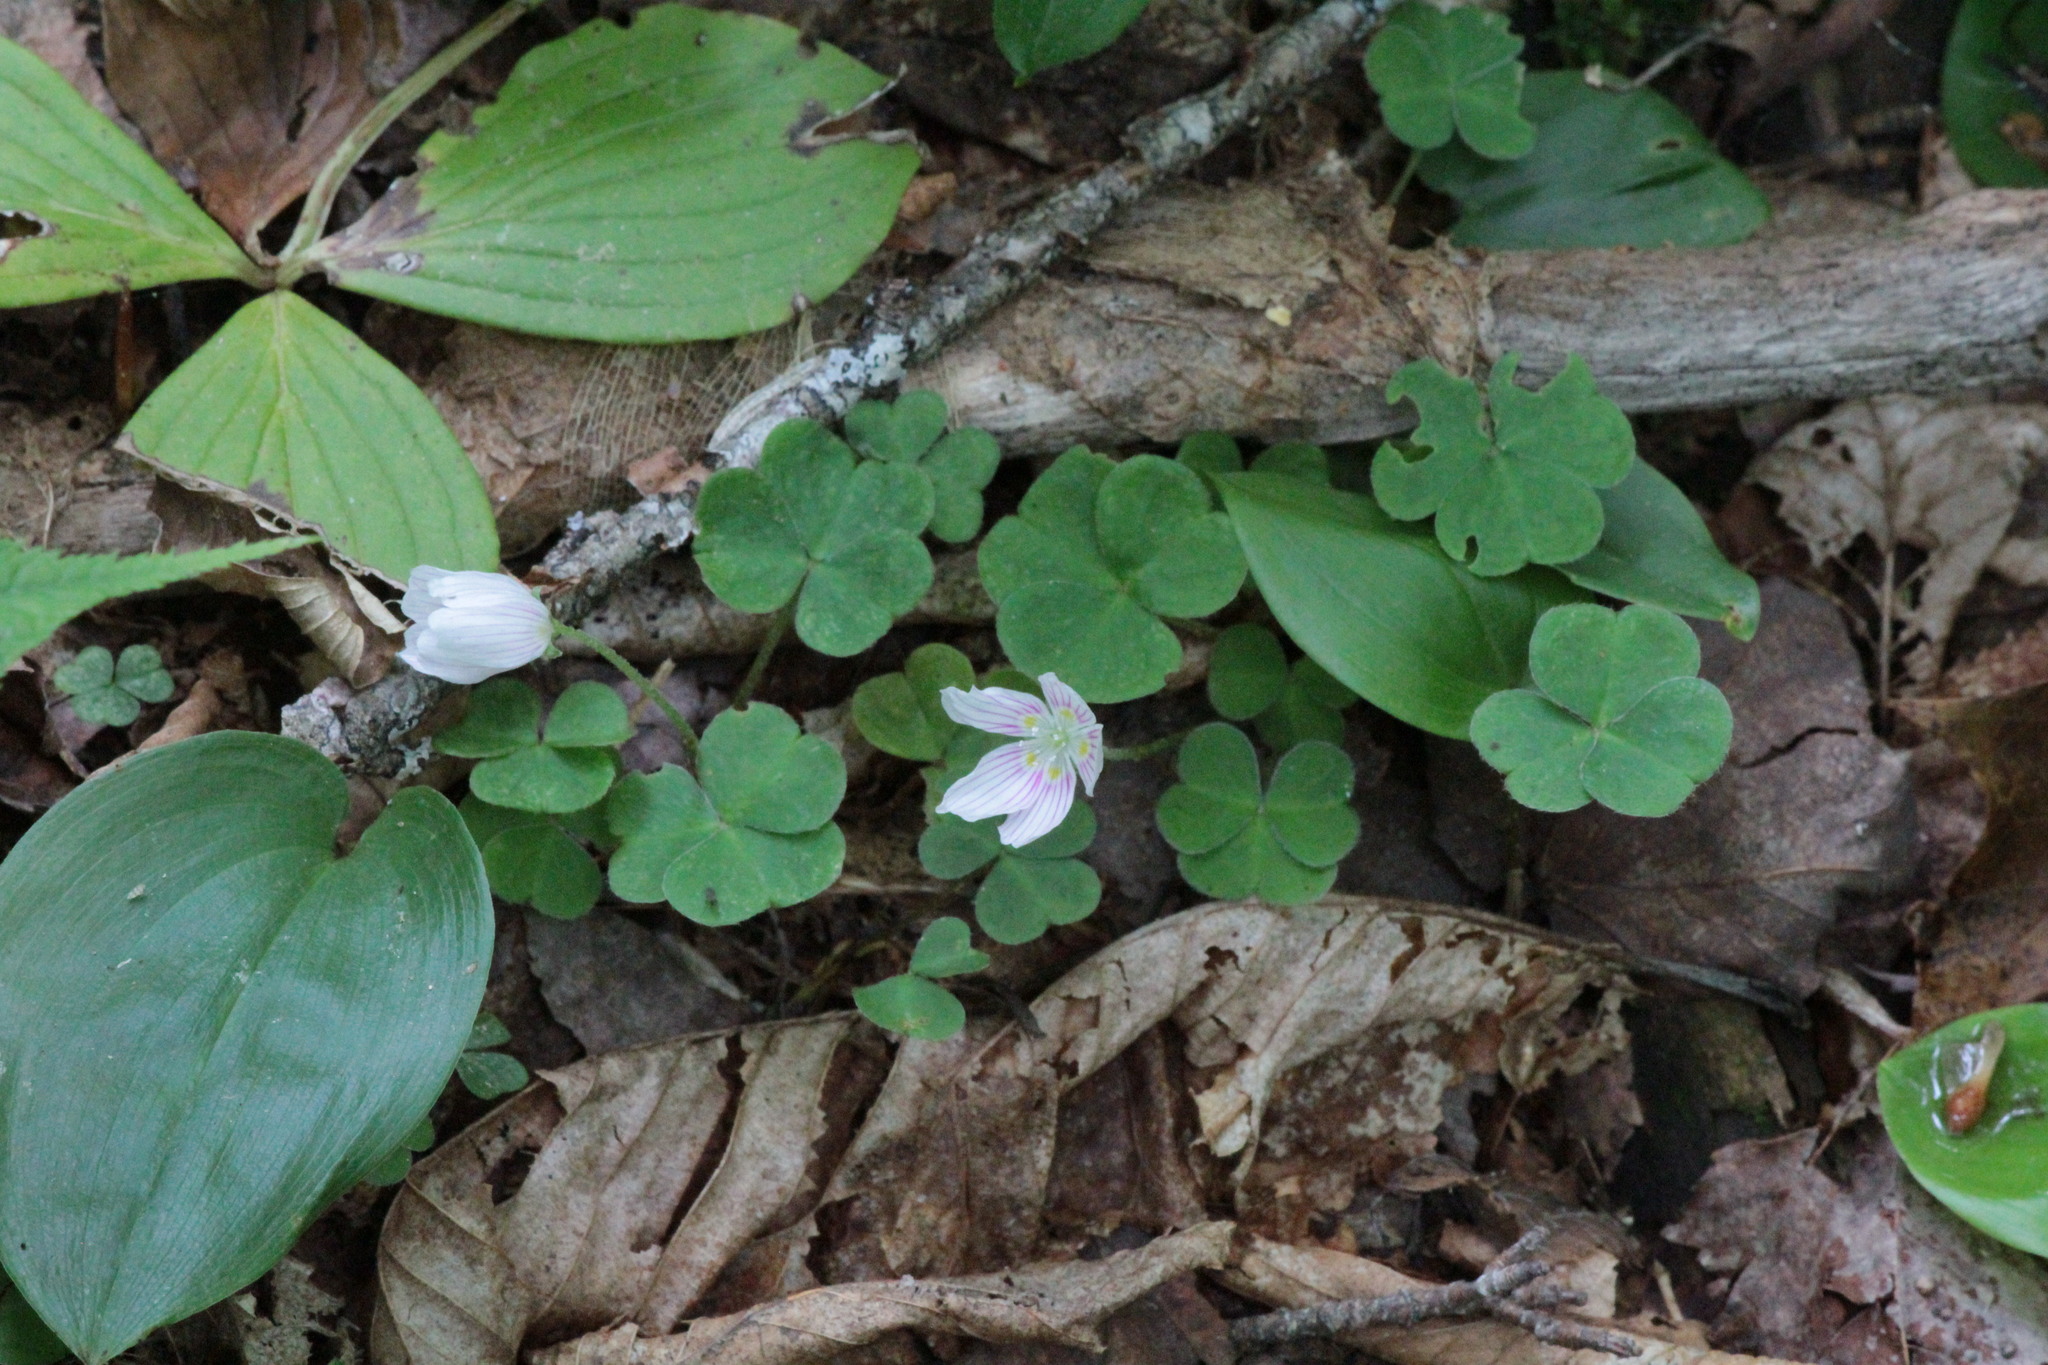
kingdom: Plantae
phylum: Tracheophyta
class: Magnoliopsida
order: Oxalidales
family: Oxalidaceae
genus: Oxalis
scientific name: Oxalis montana
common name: American wood-sorrel
